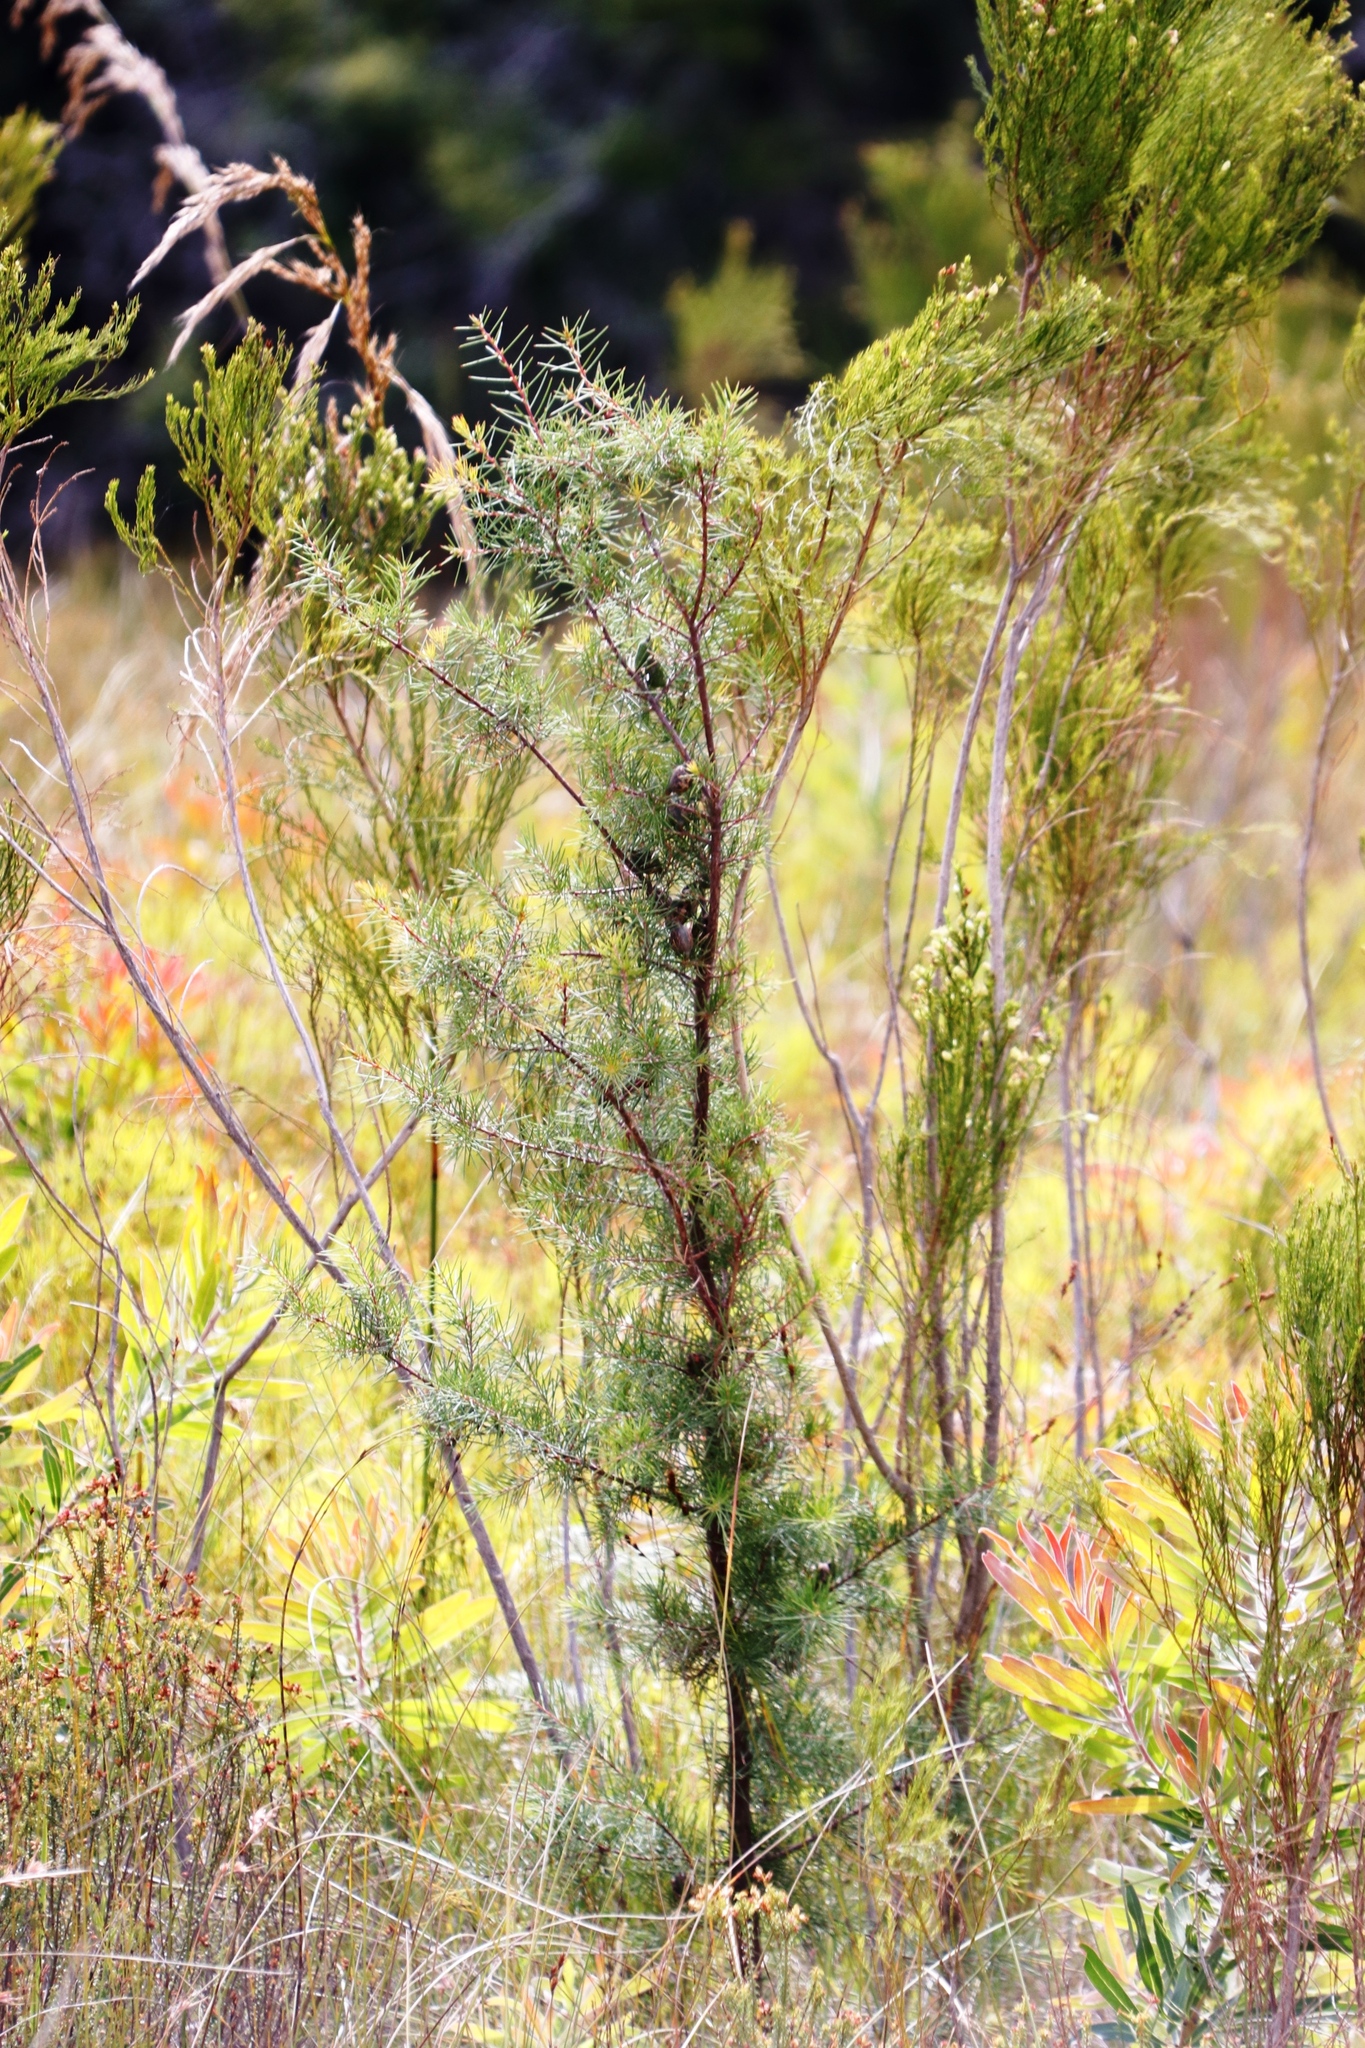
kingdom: Plantae
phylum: Tracheophyta
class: Magnoliopsida
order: Proteales
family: Proteaceae
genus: Hakea
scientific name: Hakea sericea
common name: Needle bush
